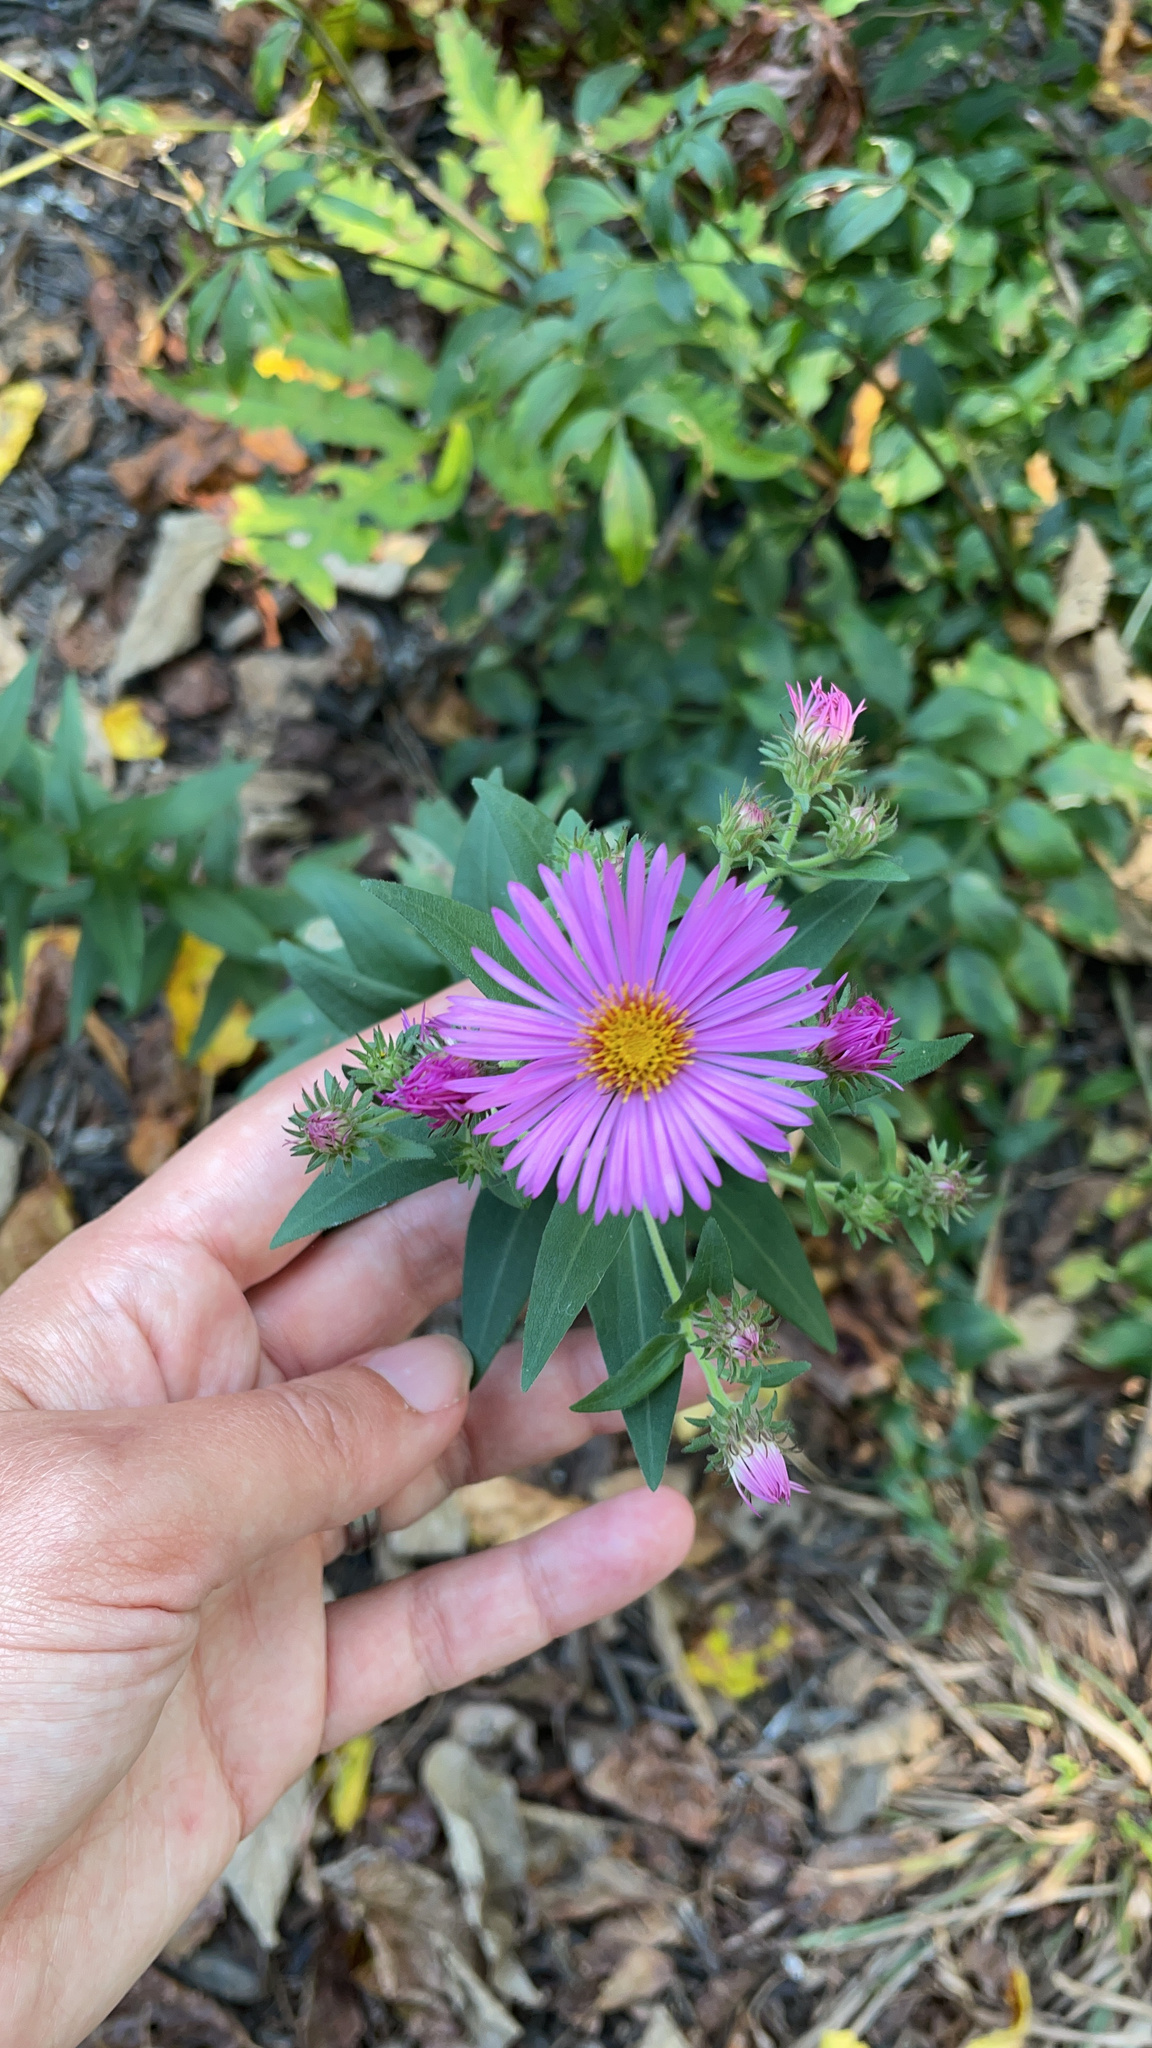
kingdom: Plantae
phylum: Tracheophyta
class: Magnoliopsida
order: Asterales
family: Asteraceae
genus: Symphyotrichum
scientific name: Symphyotrichum novae-angliae
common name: Michaelmas daisy
